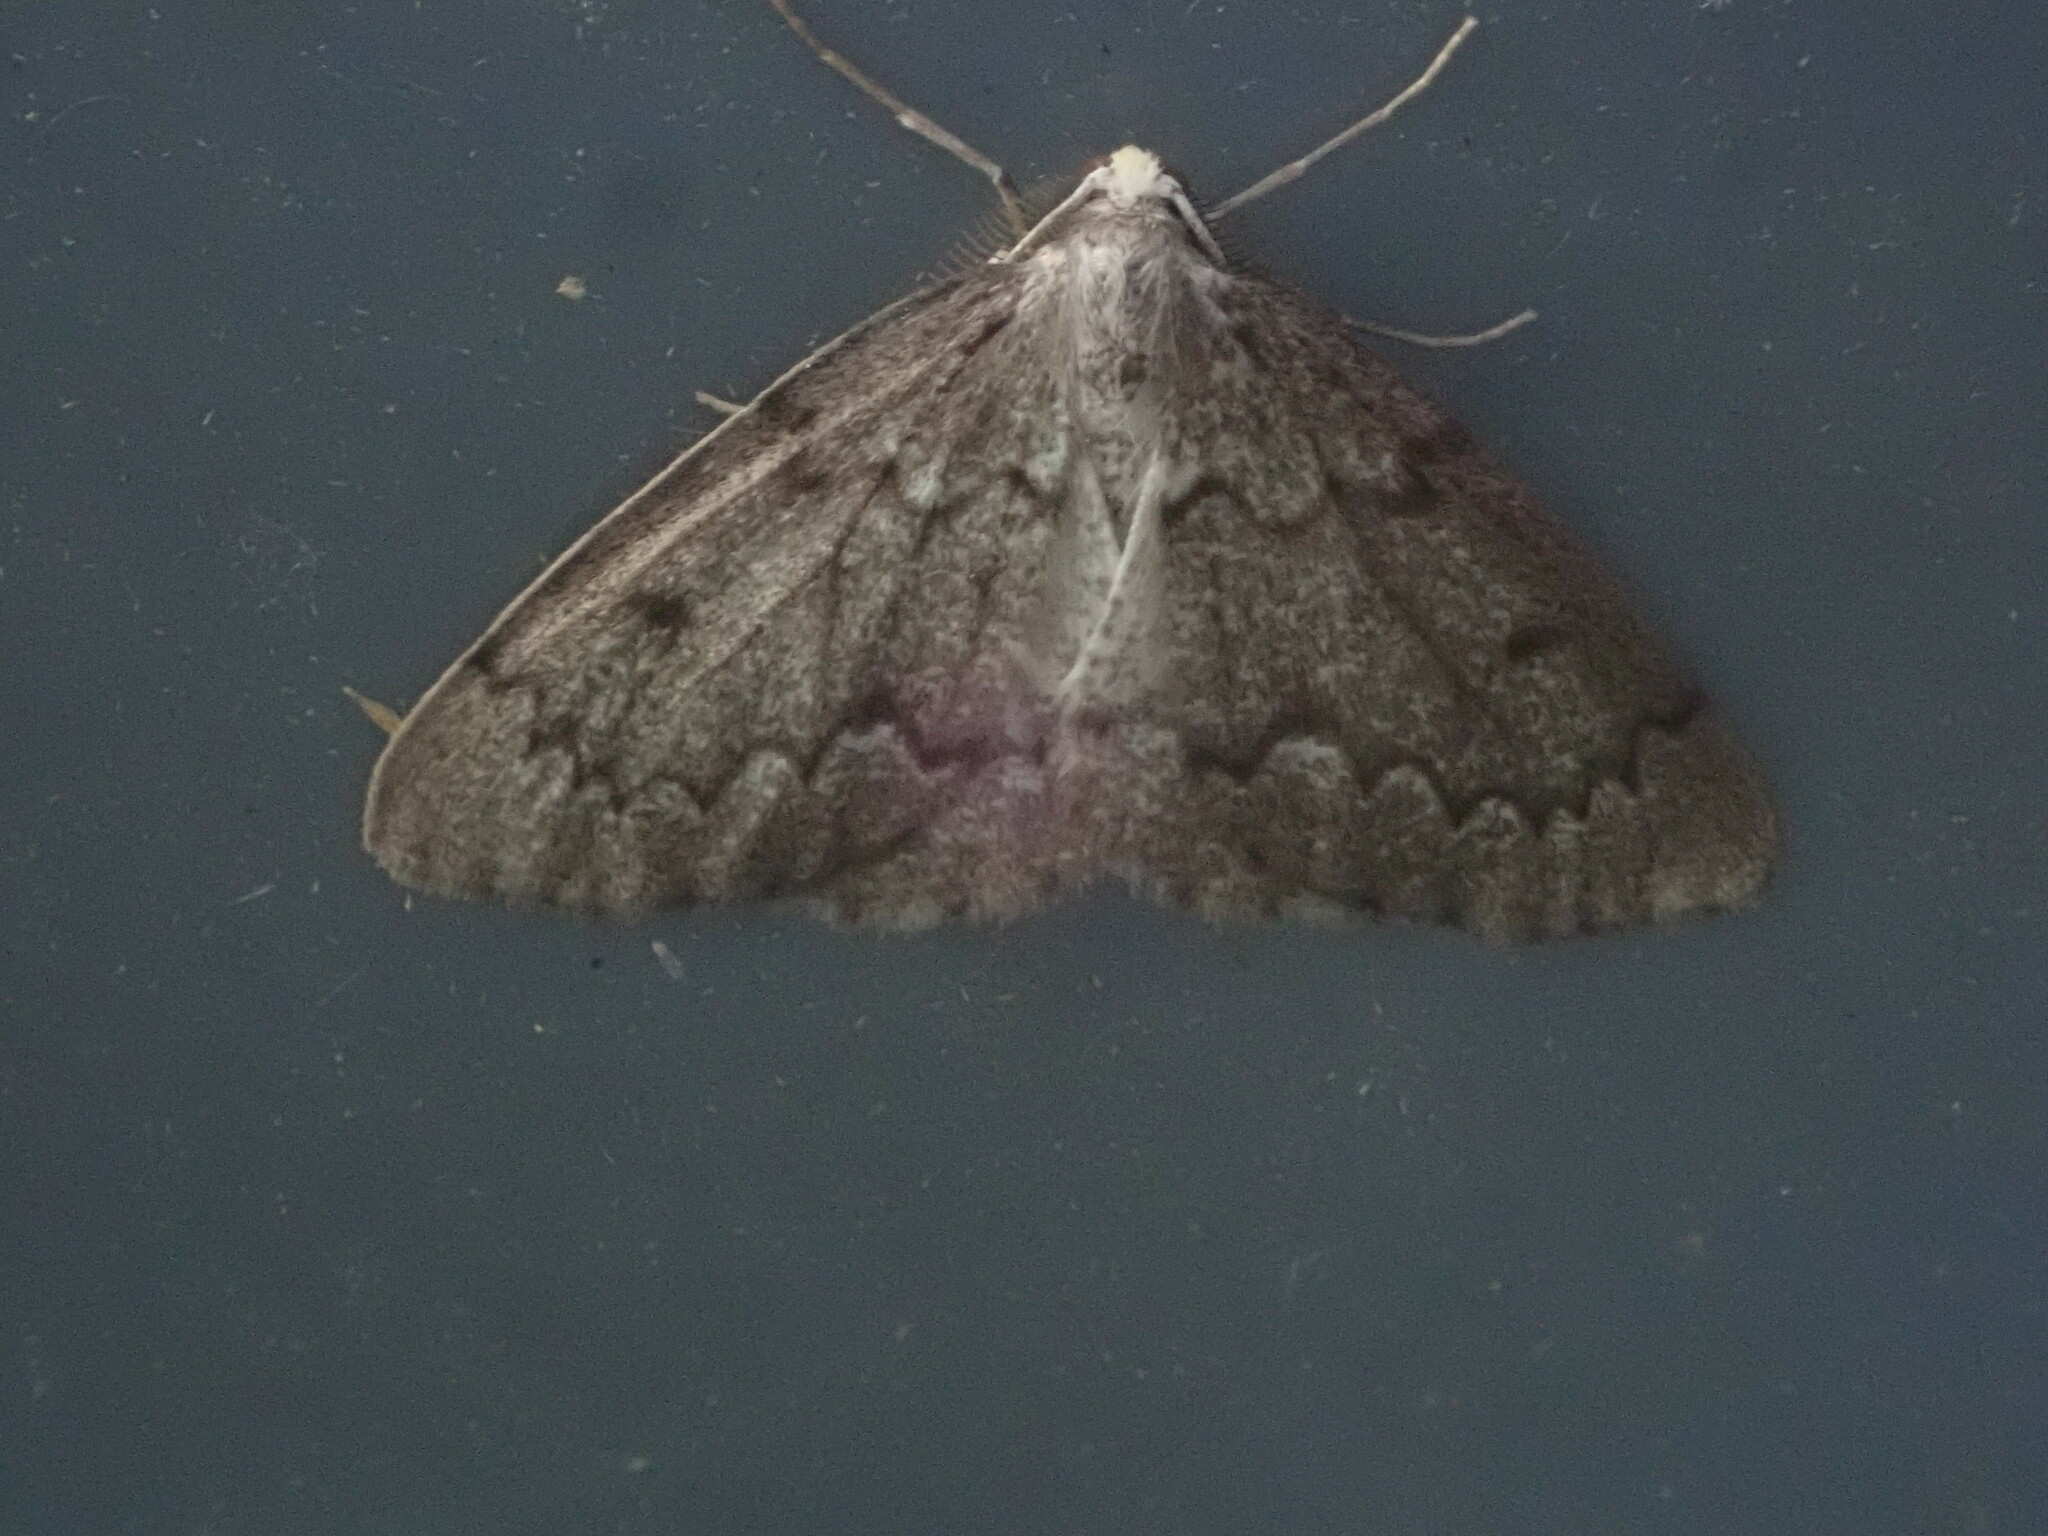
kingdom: Animalia
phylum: Arthropoda
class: Insecta
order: Lepidoptera
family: Geometridae
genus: Nepytia
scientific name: Nepytia canosaria
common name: False hemlock looper
